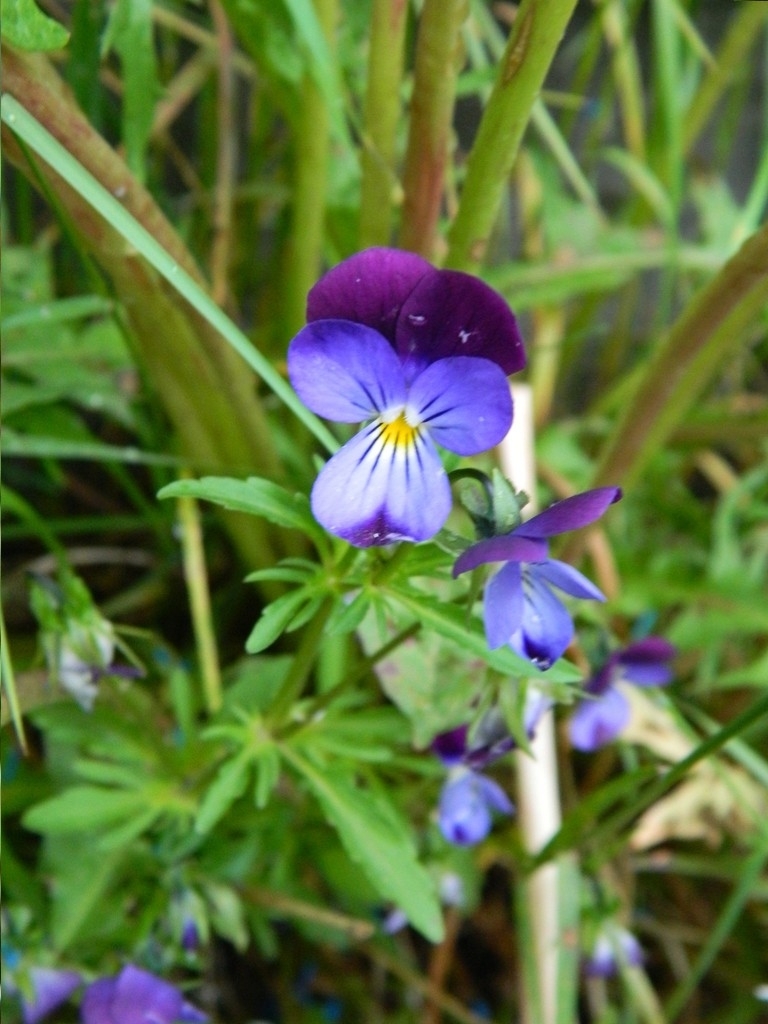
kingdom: Plantae
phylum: Tracheophyta
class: Magnoliopsida
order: Malpighiales
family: Violaceae
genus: Viola
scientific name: Viola tricolor
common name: Pansy
